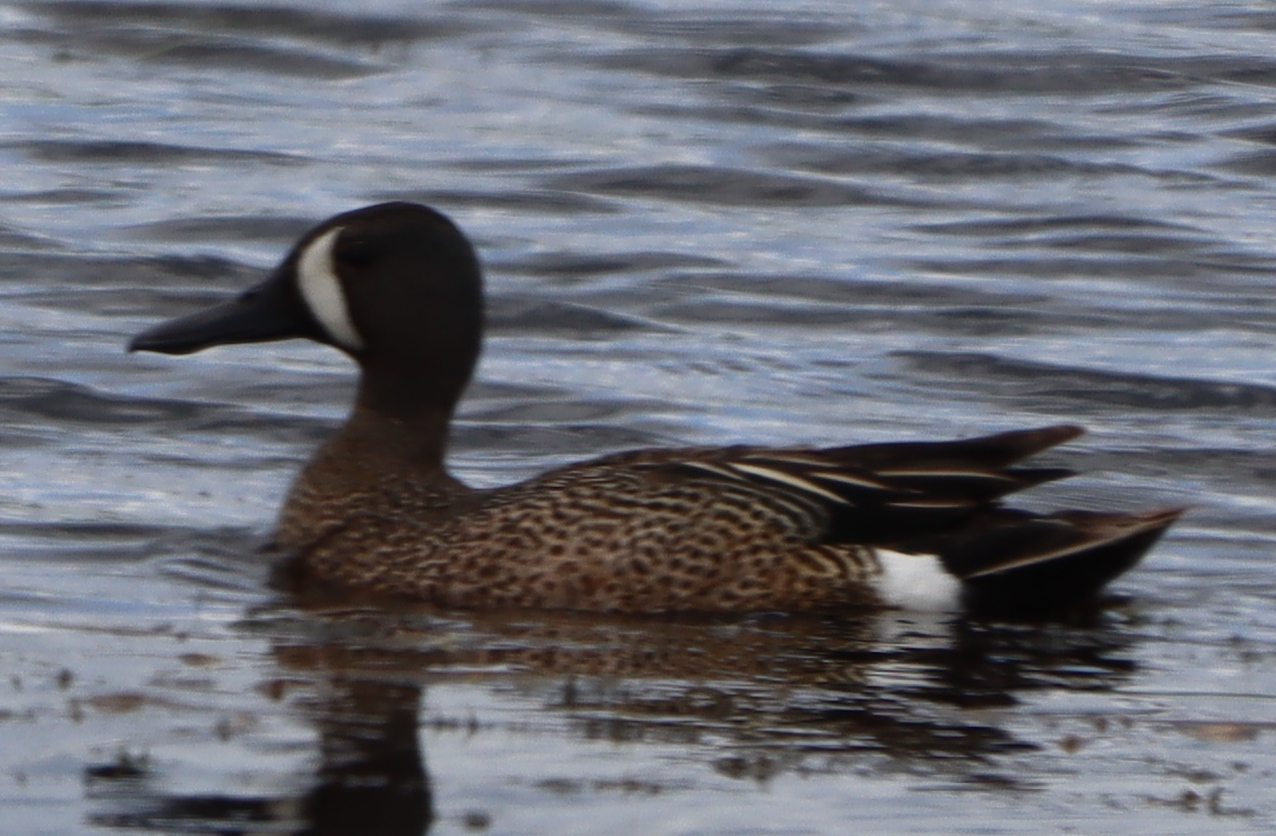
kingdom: Animalia
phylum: Chordata
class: Aves
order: Anseriformes
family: Anatidae
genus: Spatula
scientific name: Spatula discors
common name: Blue-winged teal
